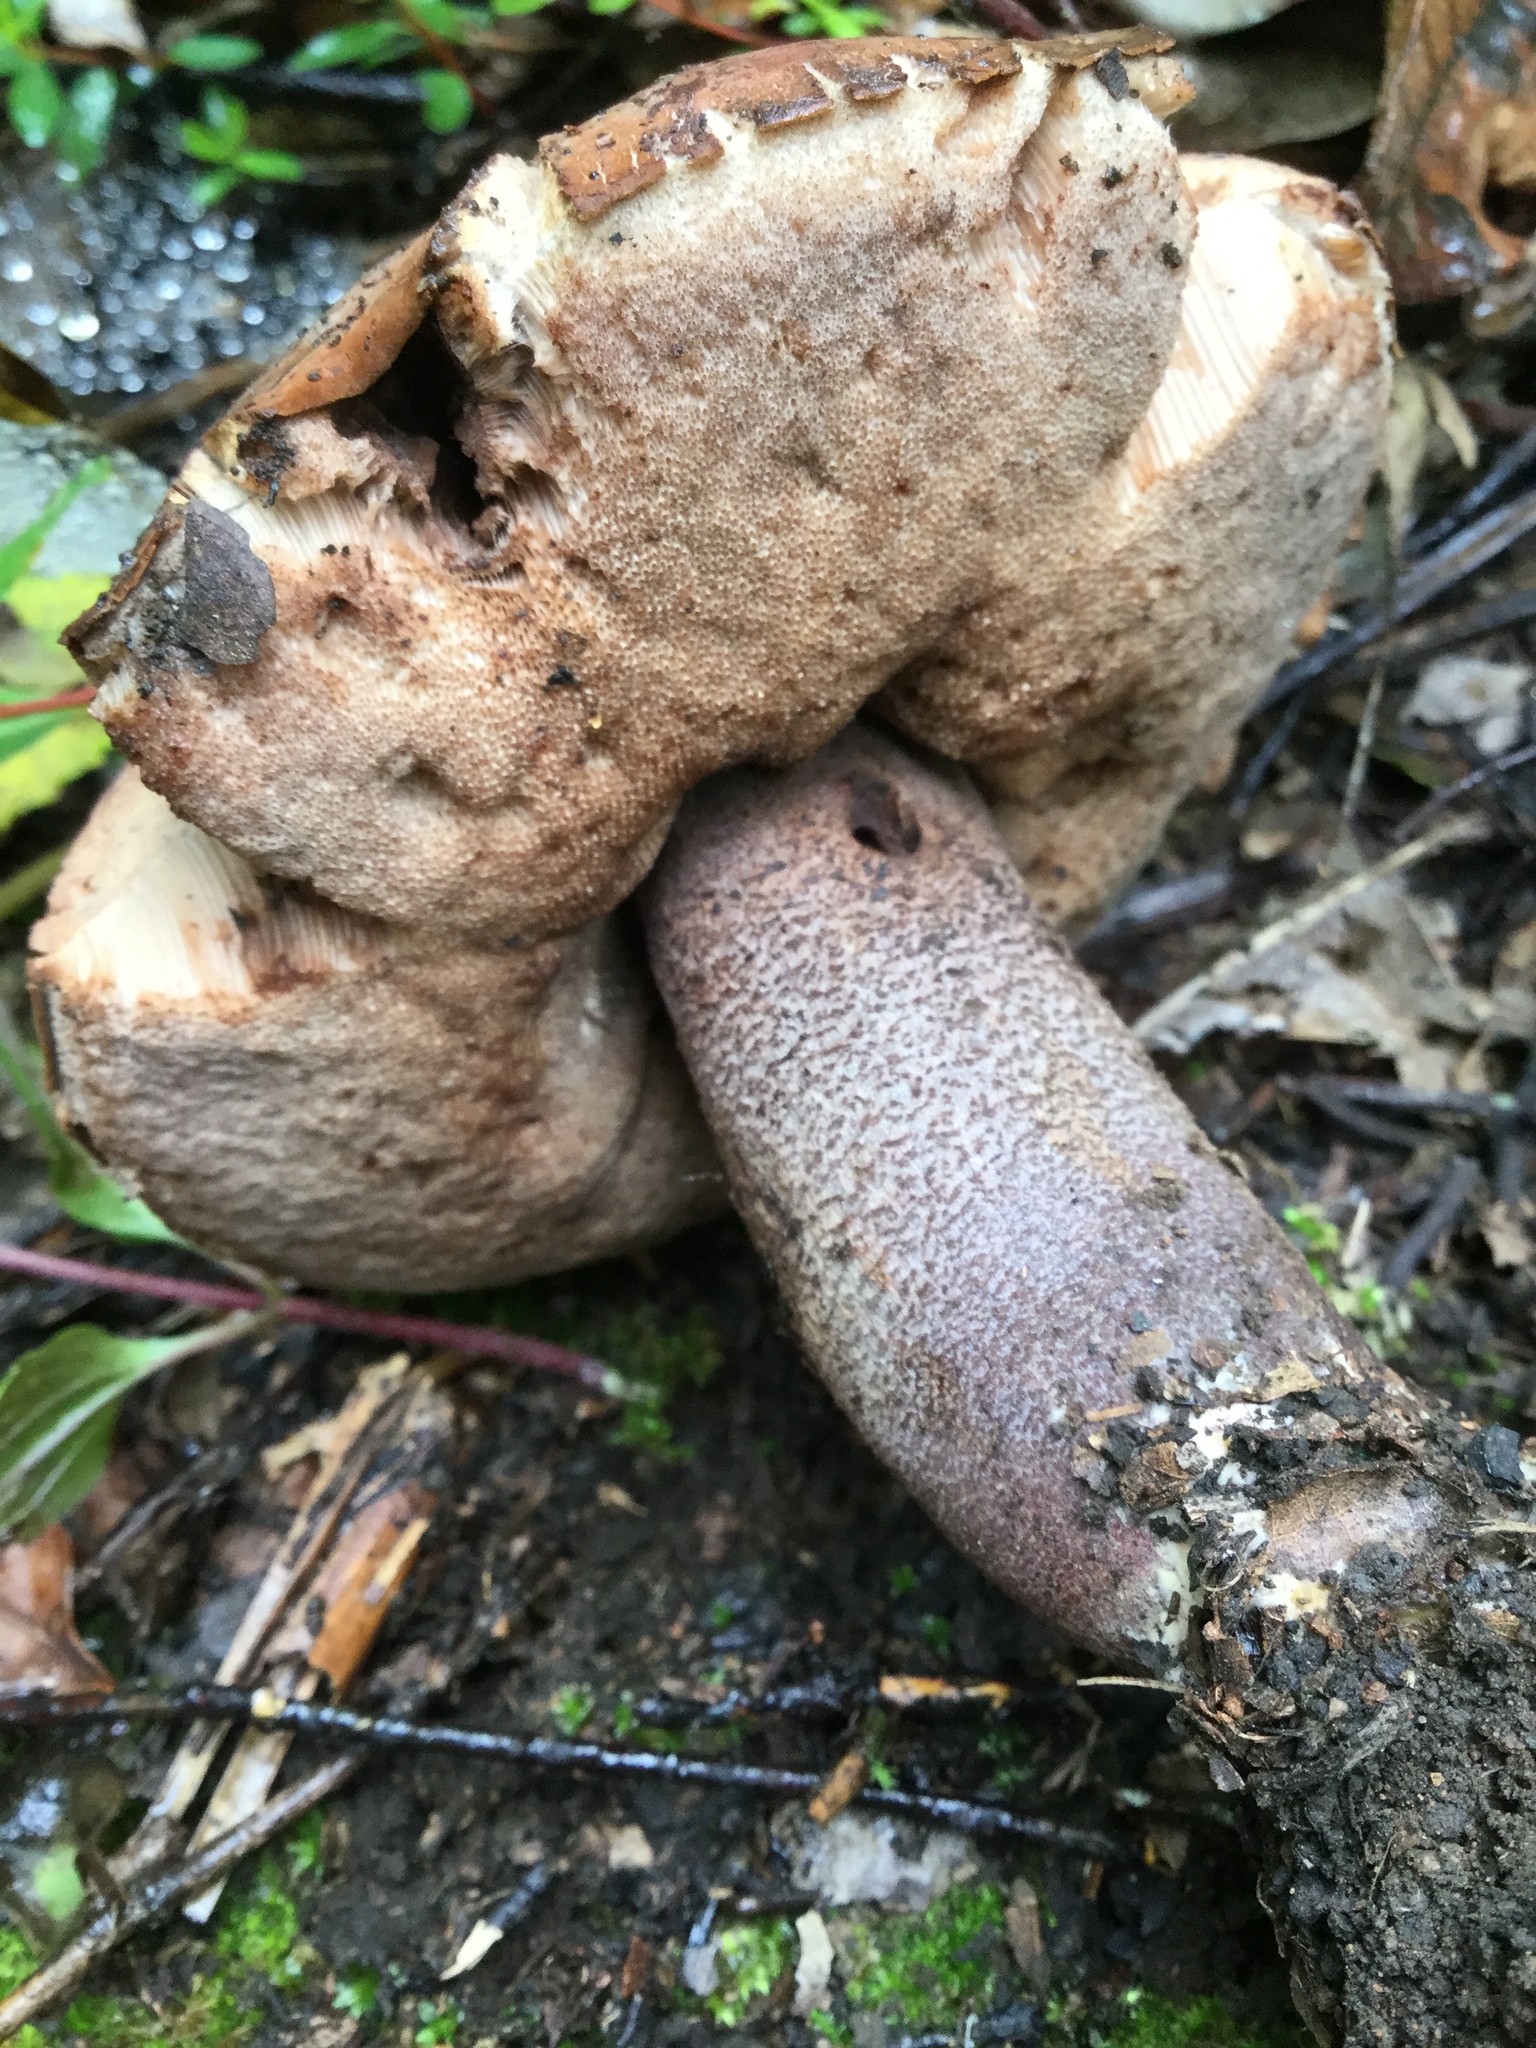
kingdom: Fungi
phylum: Basidiomycota
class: Agaricomycetes
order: Boletales
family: Boletaceae
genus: Sutorius
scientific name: Sutorius eximius
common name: Lilac-brown bolete
